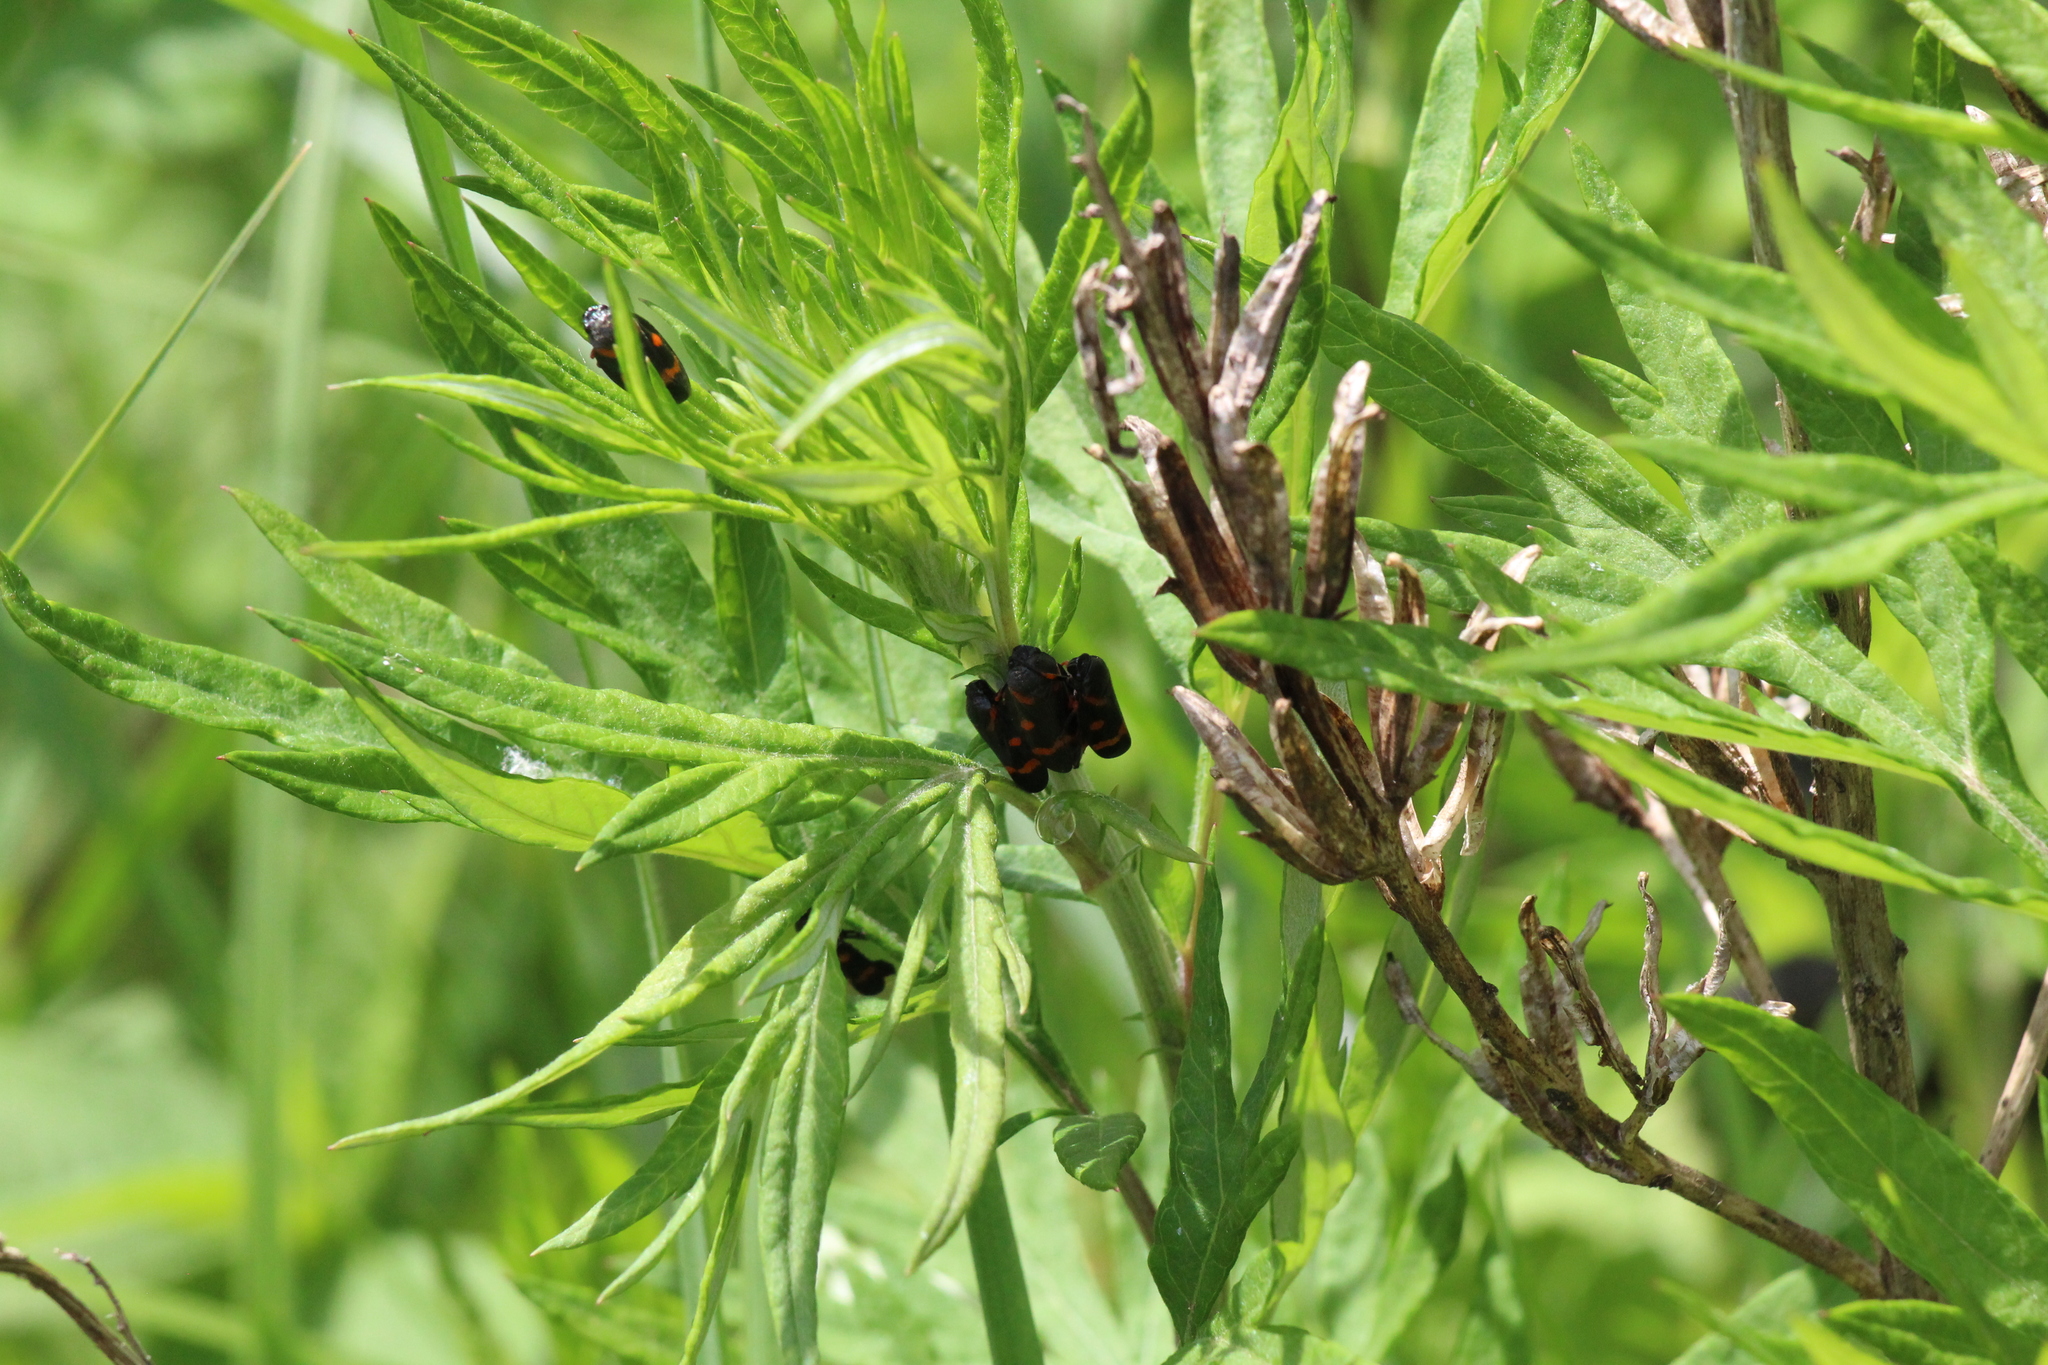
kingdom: Animalia
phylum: Arthropoda
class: Insecta
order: Hemiptera
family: Cercopidae
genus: Cercopis
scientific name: Cercopis intermedia
